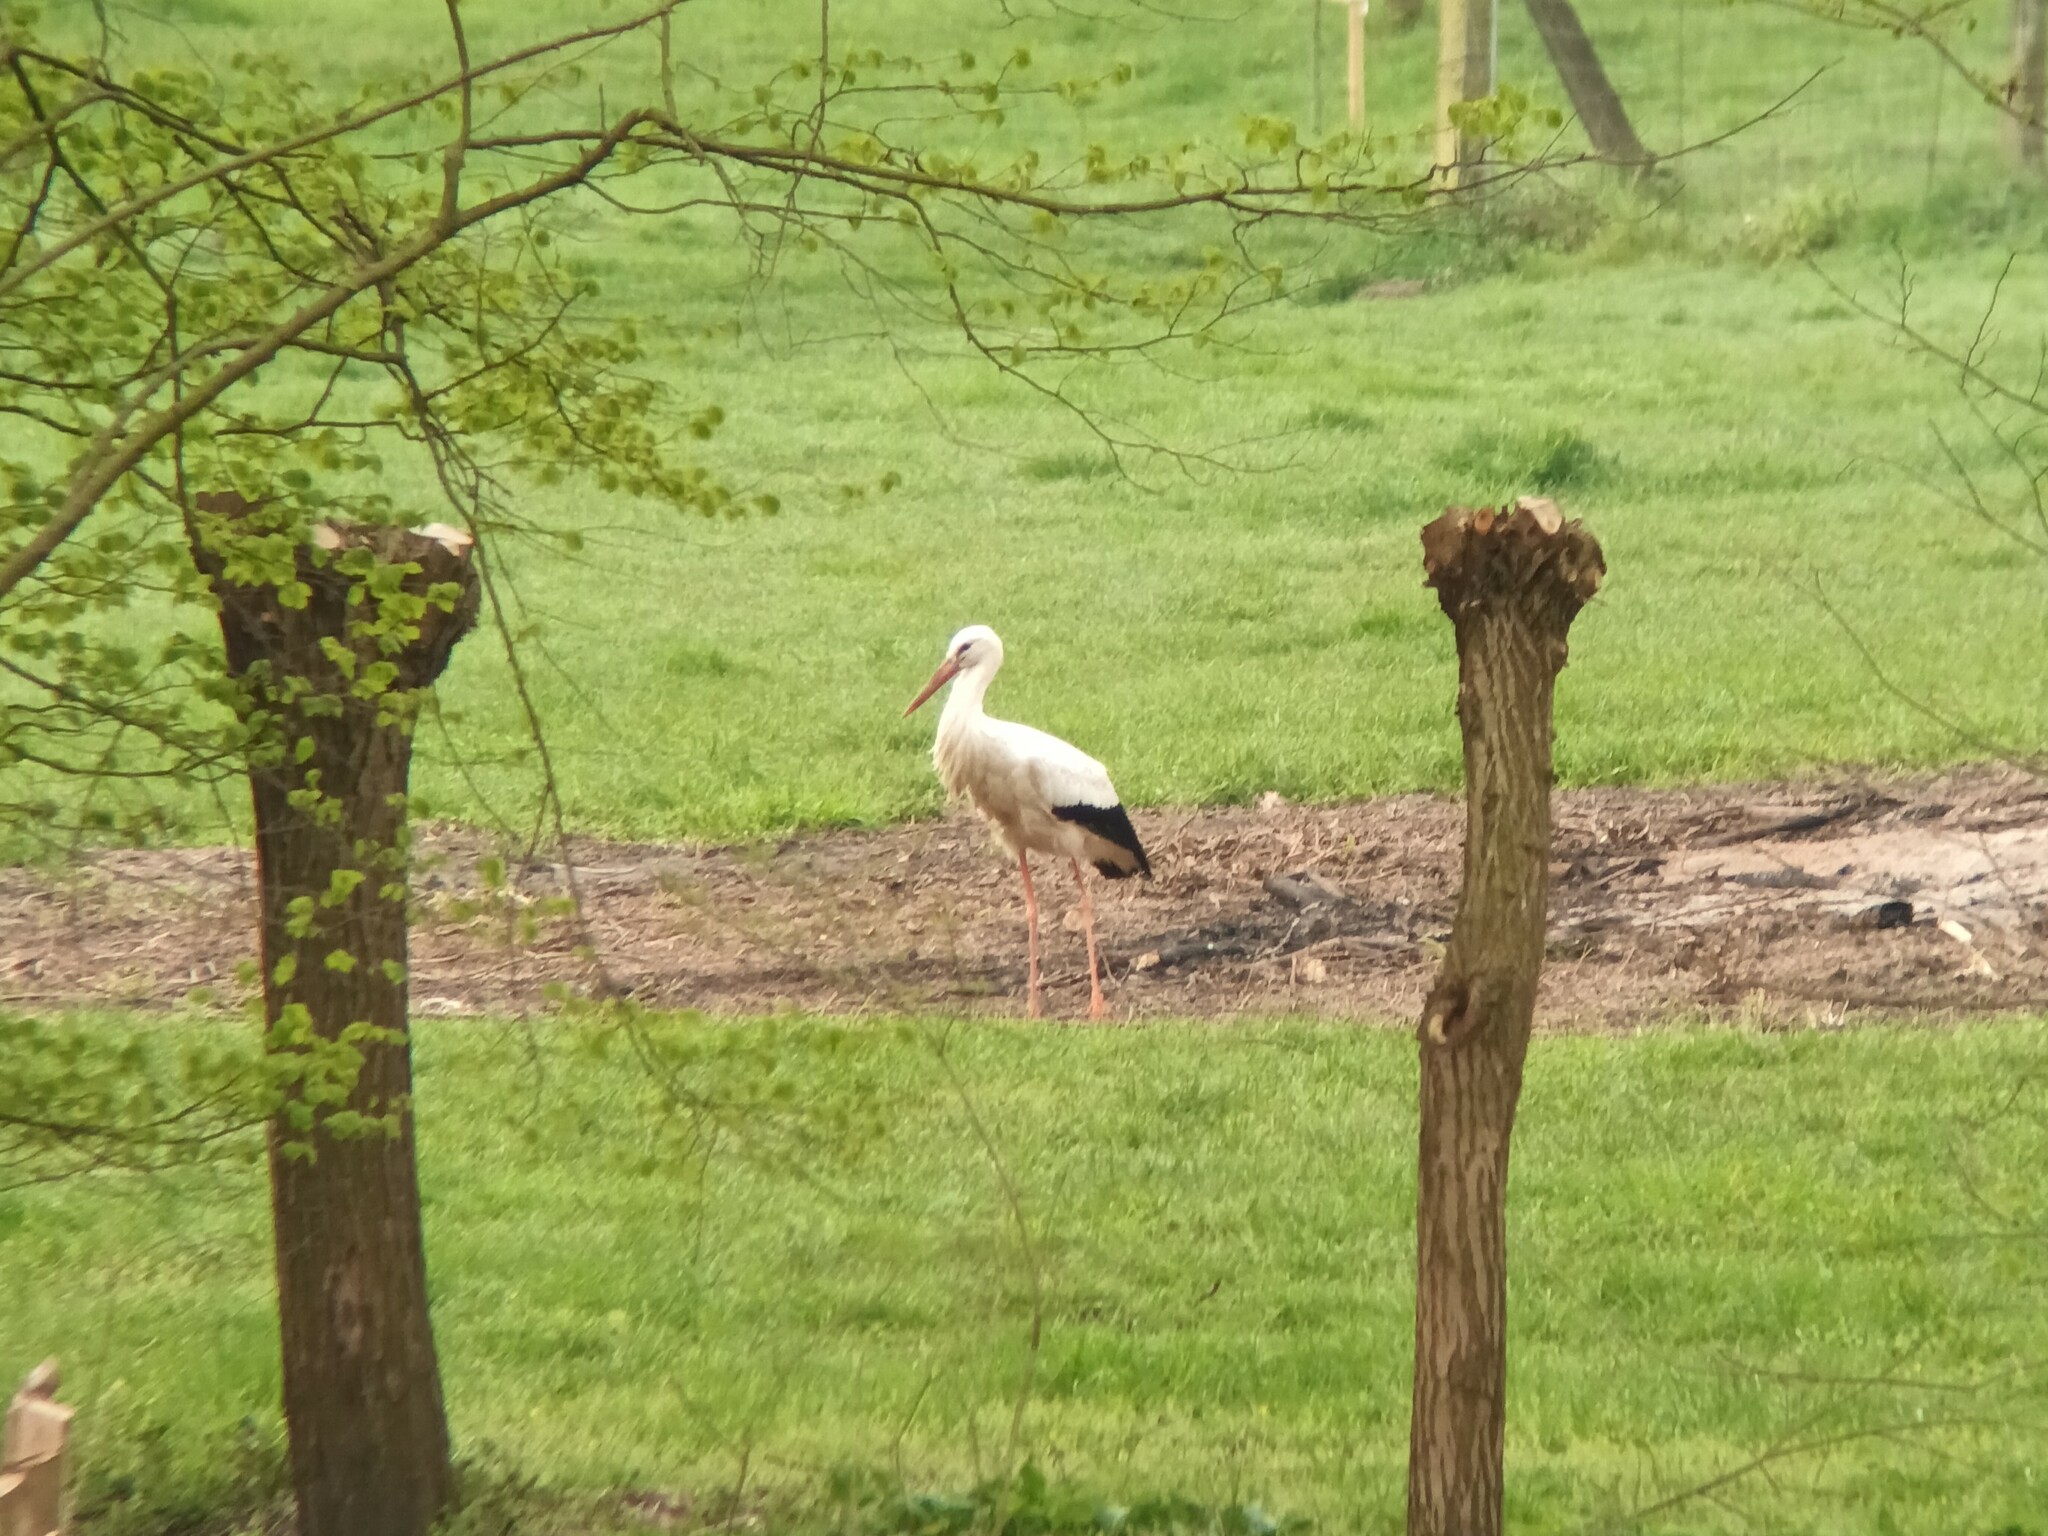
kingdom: Animalia
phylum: Chordata
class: Aves
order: Ciconiiformes
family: Ciconiidae
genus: Ciconia
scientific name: Ciconia ciconia
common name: White stork
